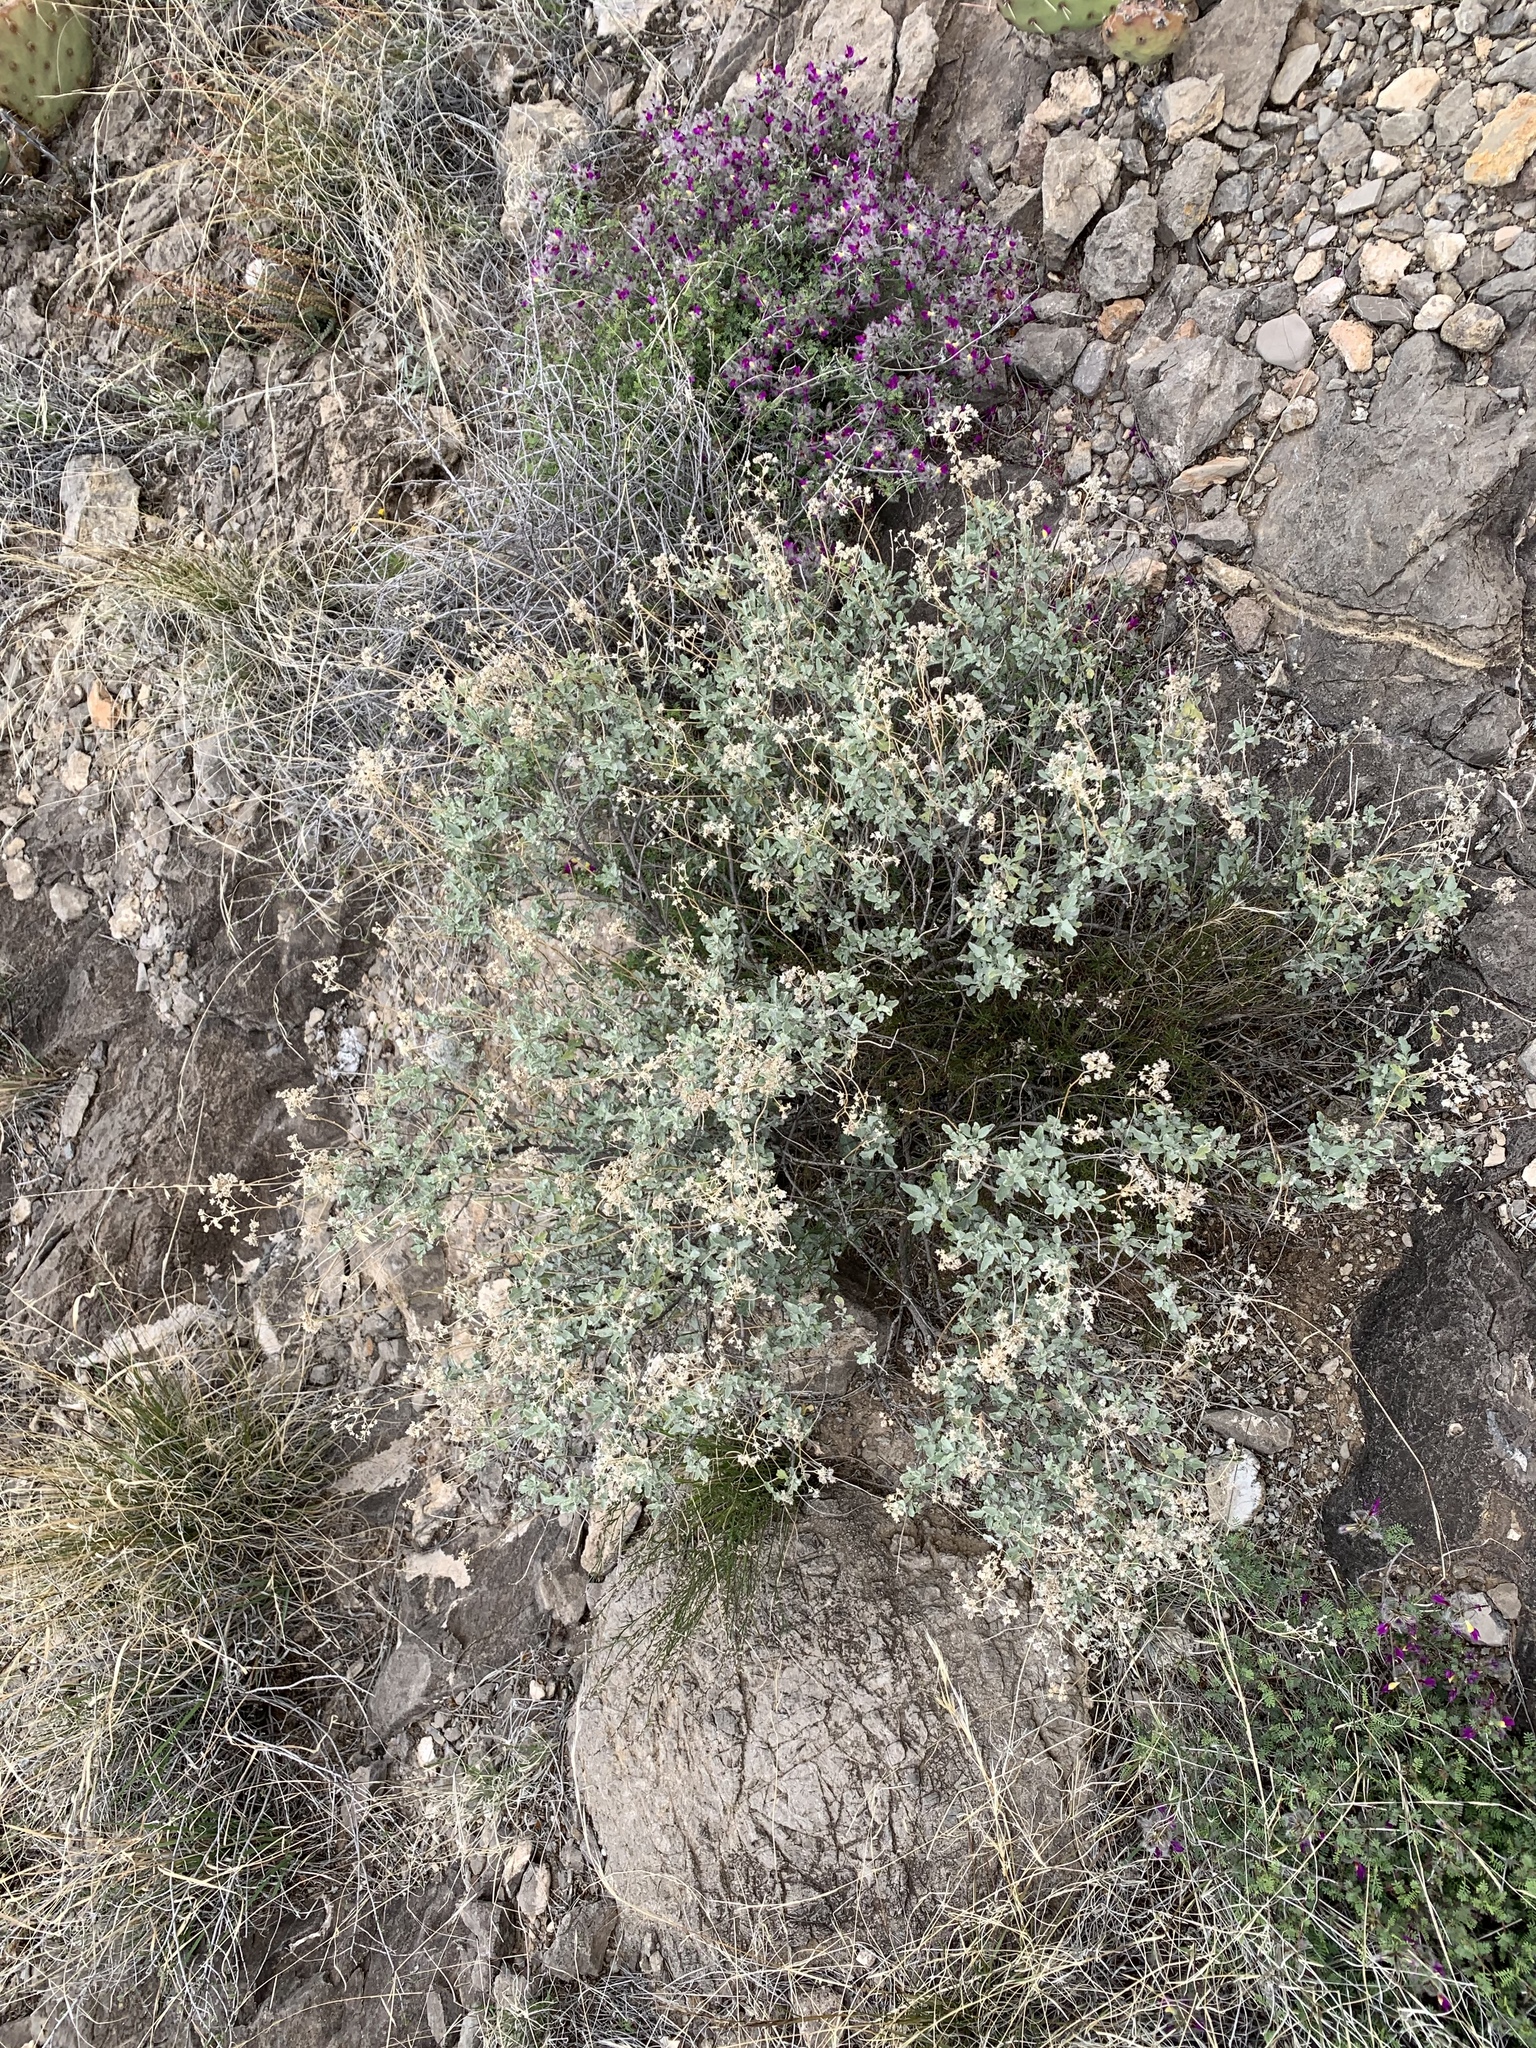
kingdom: Plantae
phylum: Tracheophyta
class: Magnoliopsida
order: Asterales
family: Asteraceae
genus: Parthenium
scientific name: Parthenium incanum
